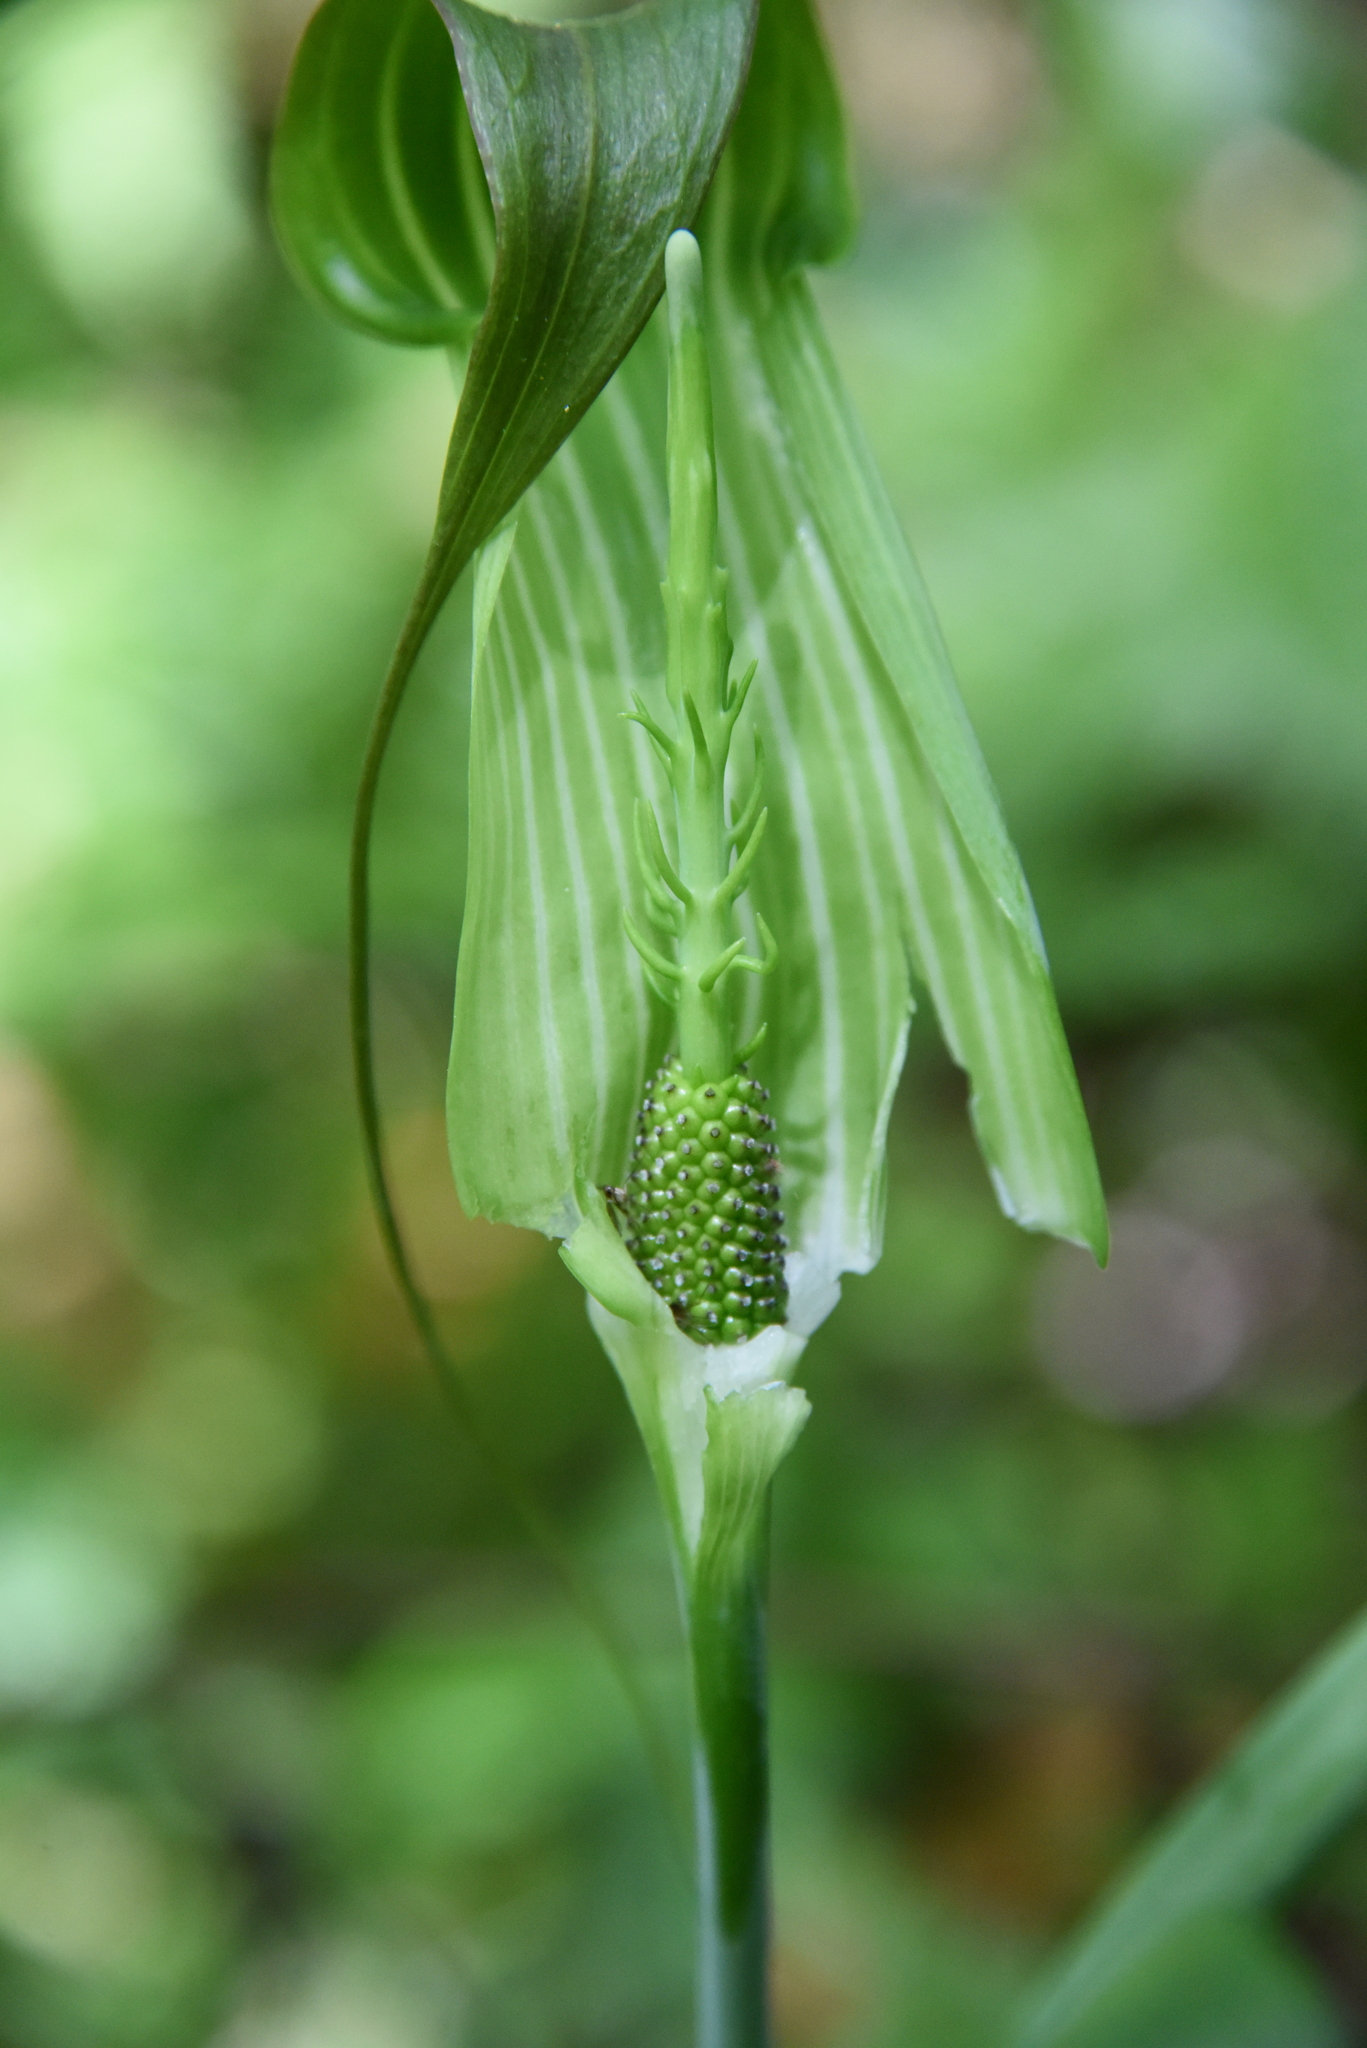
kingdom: Plantae
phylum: Tracheophyta
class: Liliopsida
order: Alismatales
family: Araceae
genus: Arisaema
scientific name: Arisaema consanguineum
